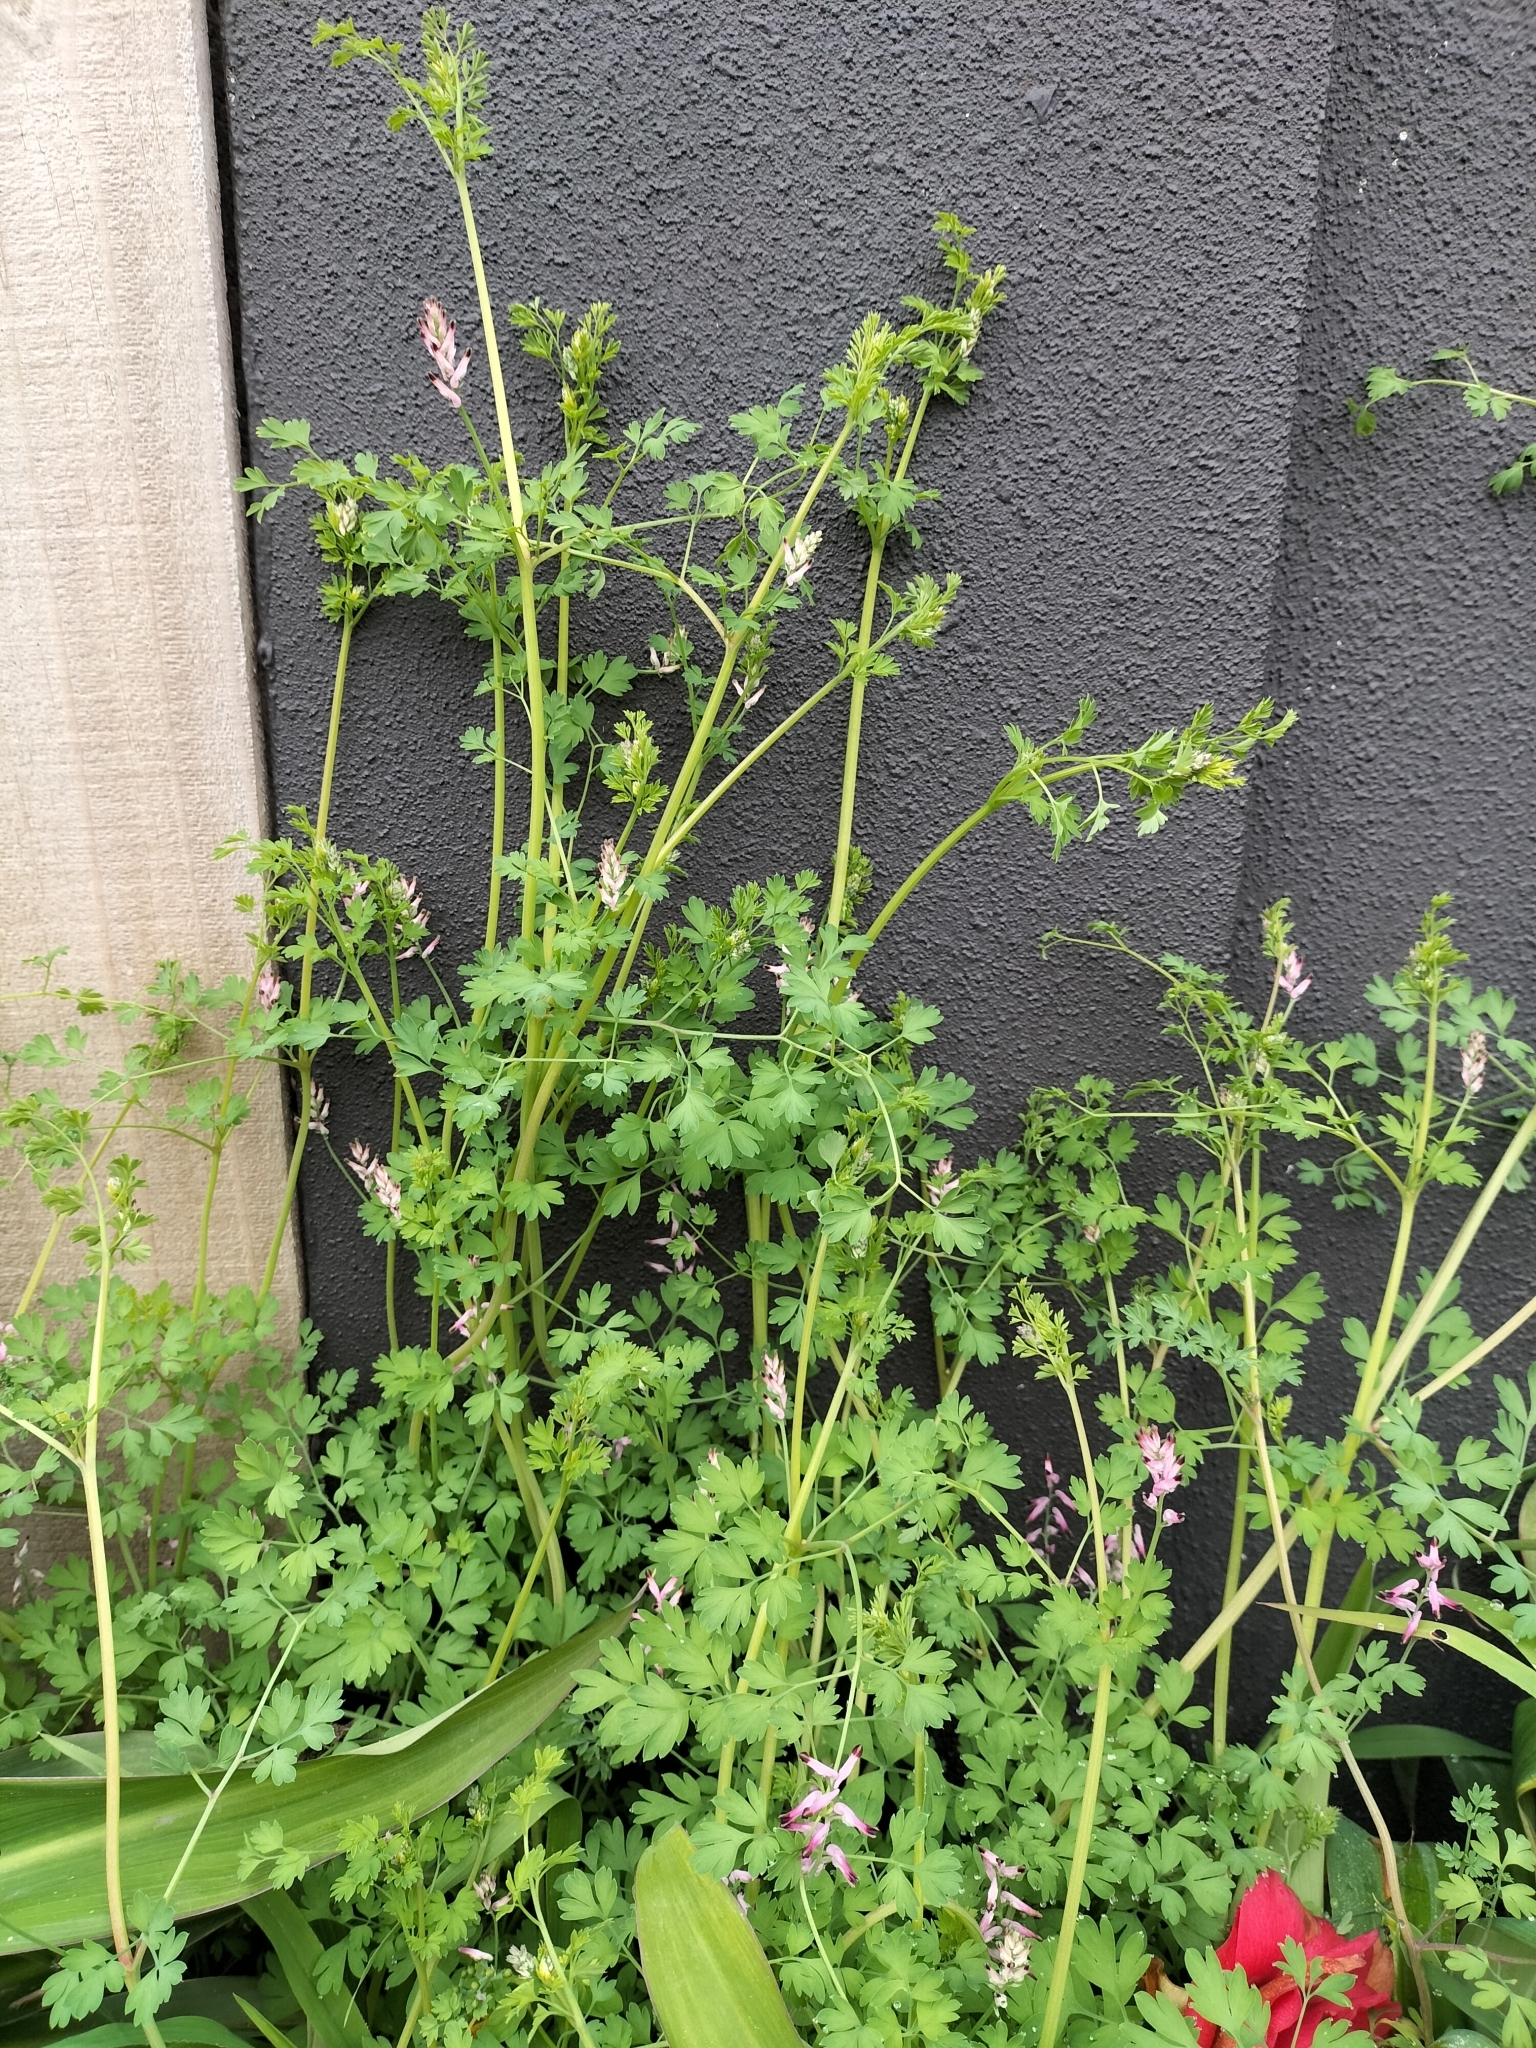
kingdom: Plantae
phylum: Tracheophyta
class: Magnoliopsida
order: Ranunculales
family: Papaveraceae
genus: Fumaria
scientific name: Fumaria muralis
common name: Common ramping-fumitory
